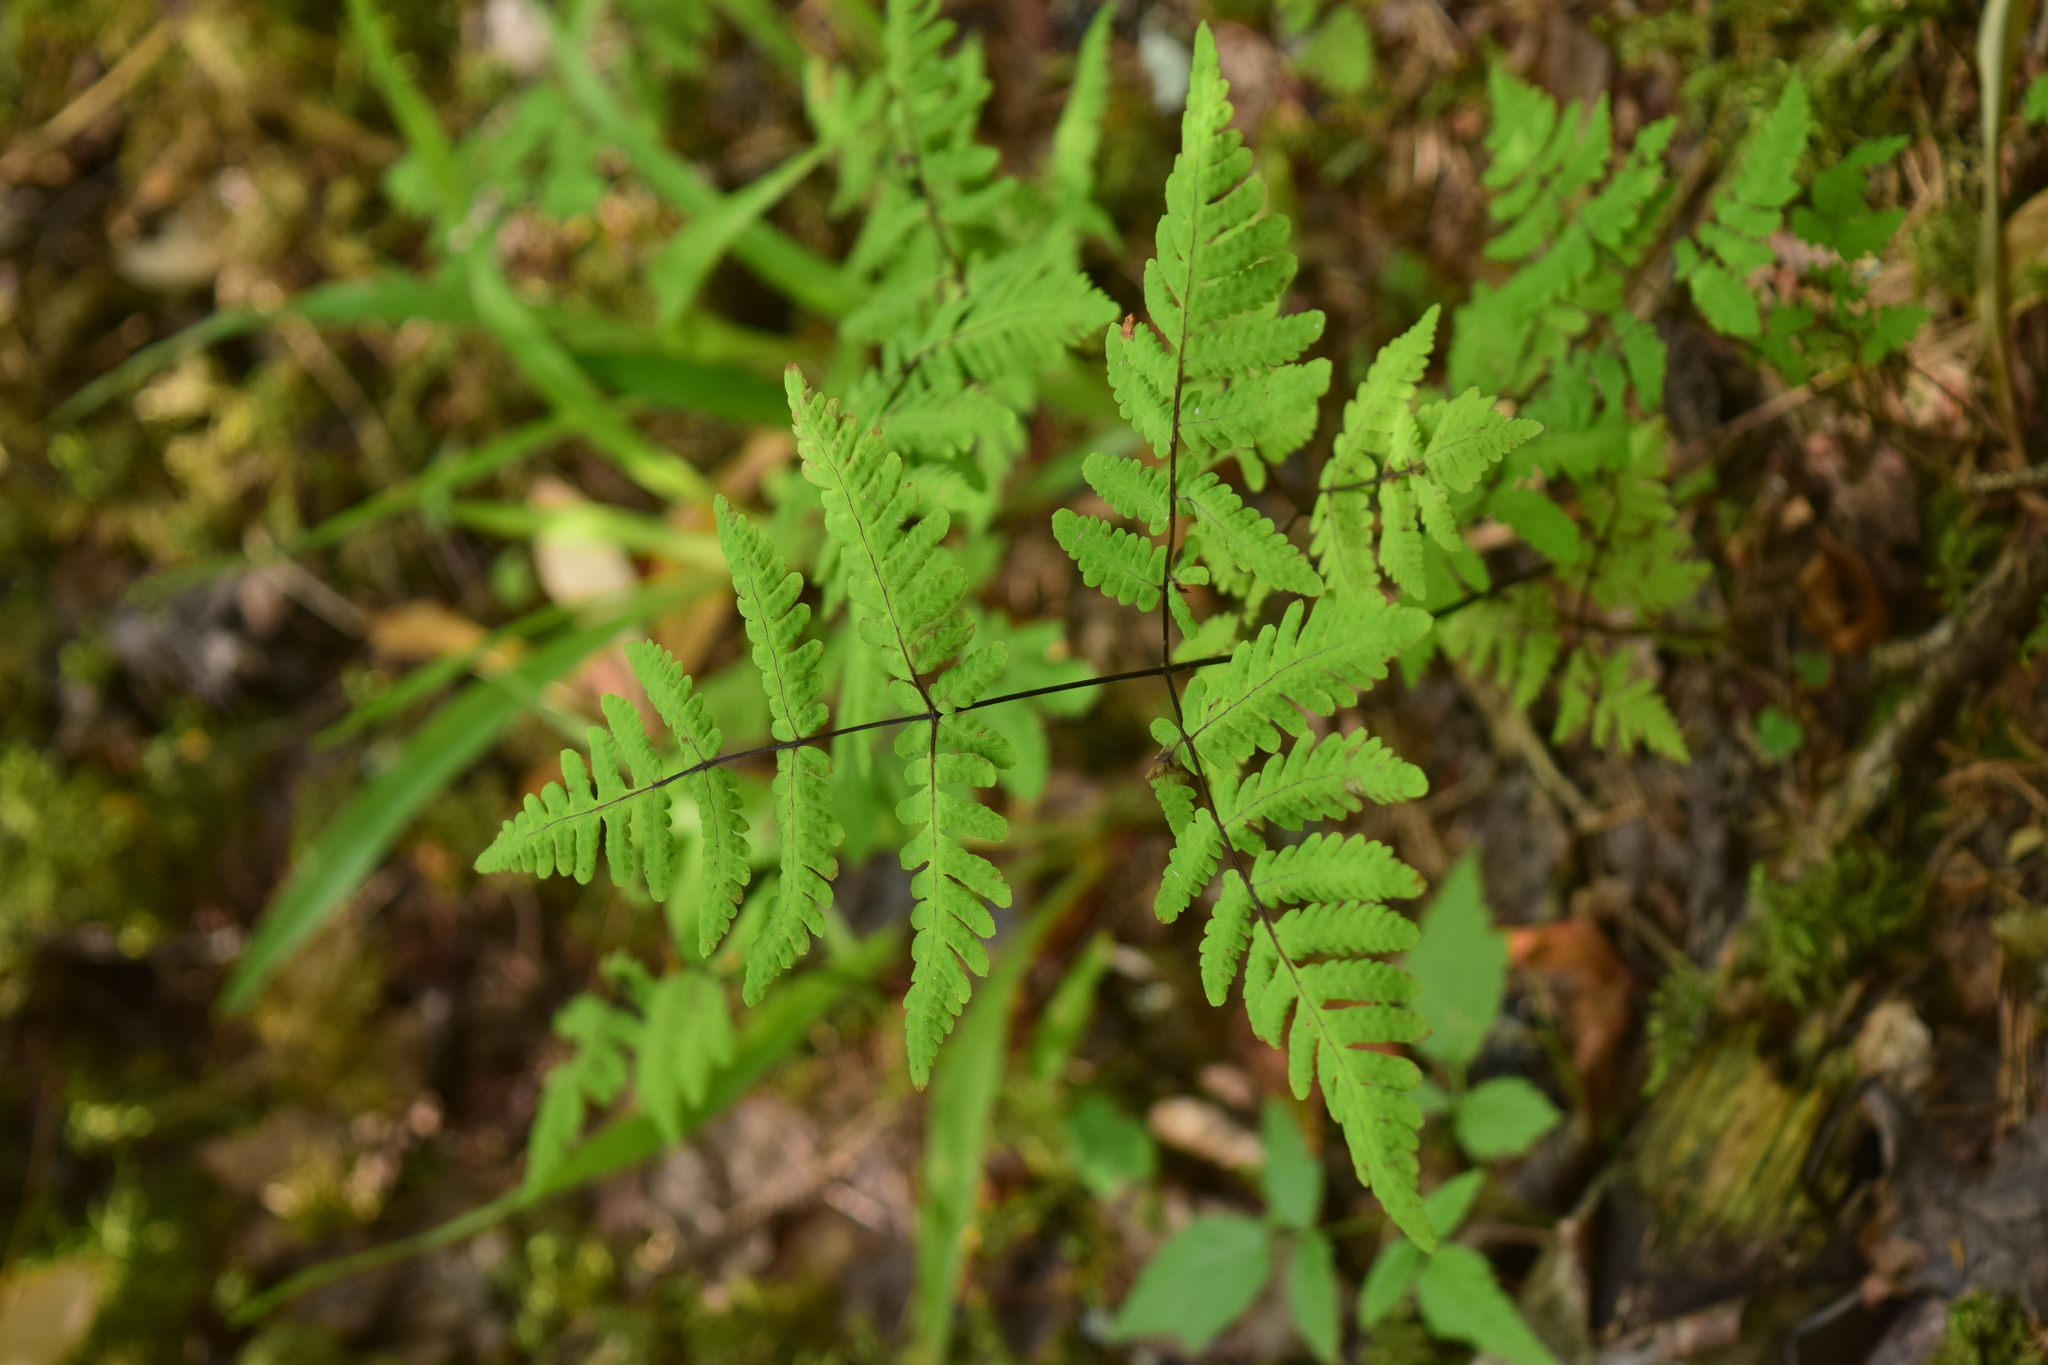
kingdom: Plantae
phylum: Tracheophyta
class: Polypodiopsida
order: Polypodiales
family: Cystopteridaceae
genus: Gymnocarpium
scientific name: Gymnocarpium dryopteris
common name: Oak fern
